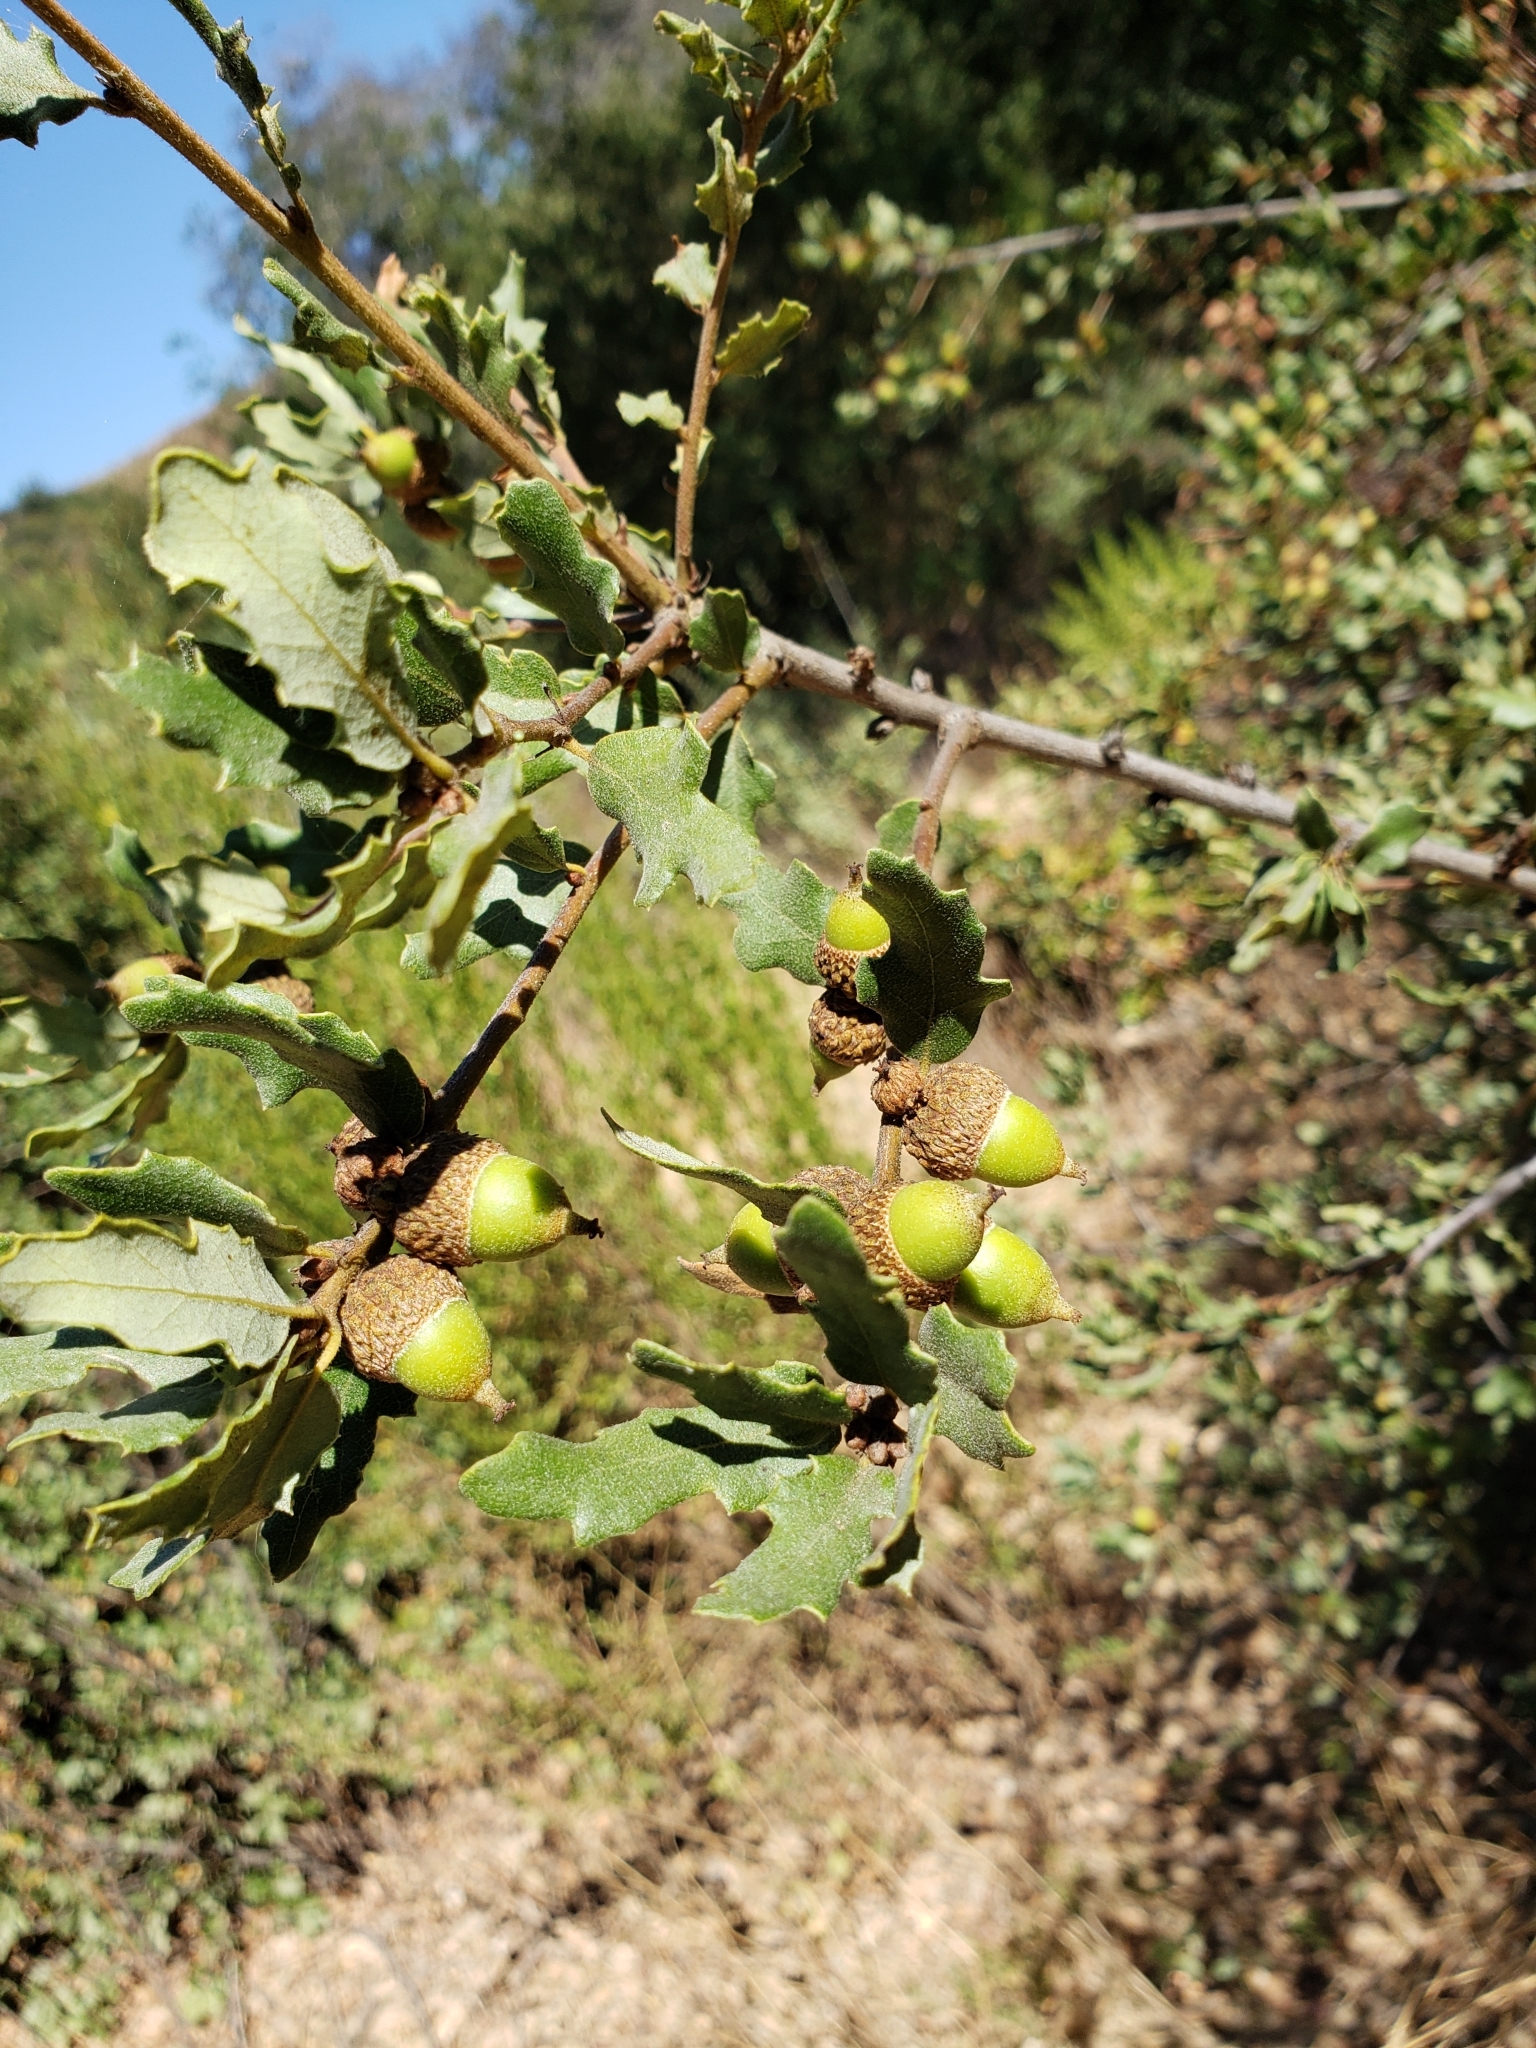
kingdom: Plantae
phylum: Tracheophyta
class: Magnoliopsida
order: Fagales
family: Fagaceae
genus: Quercus
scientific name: Quercus durata
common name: Leather oak
